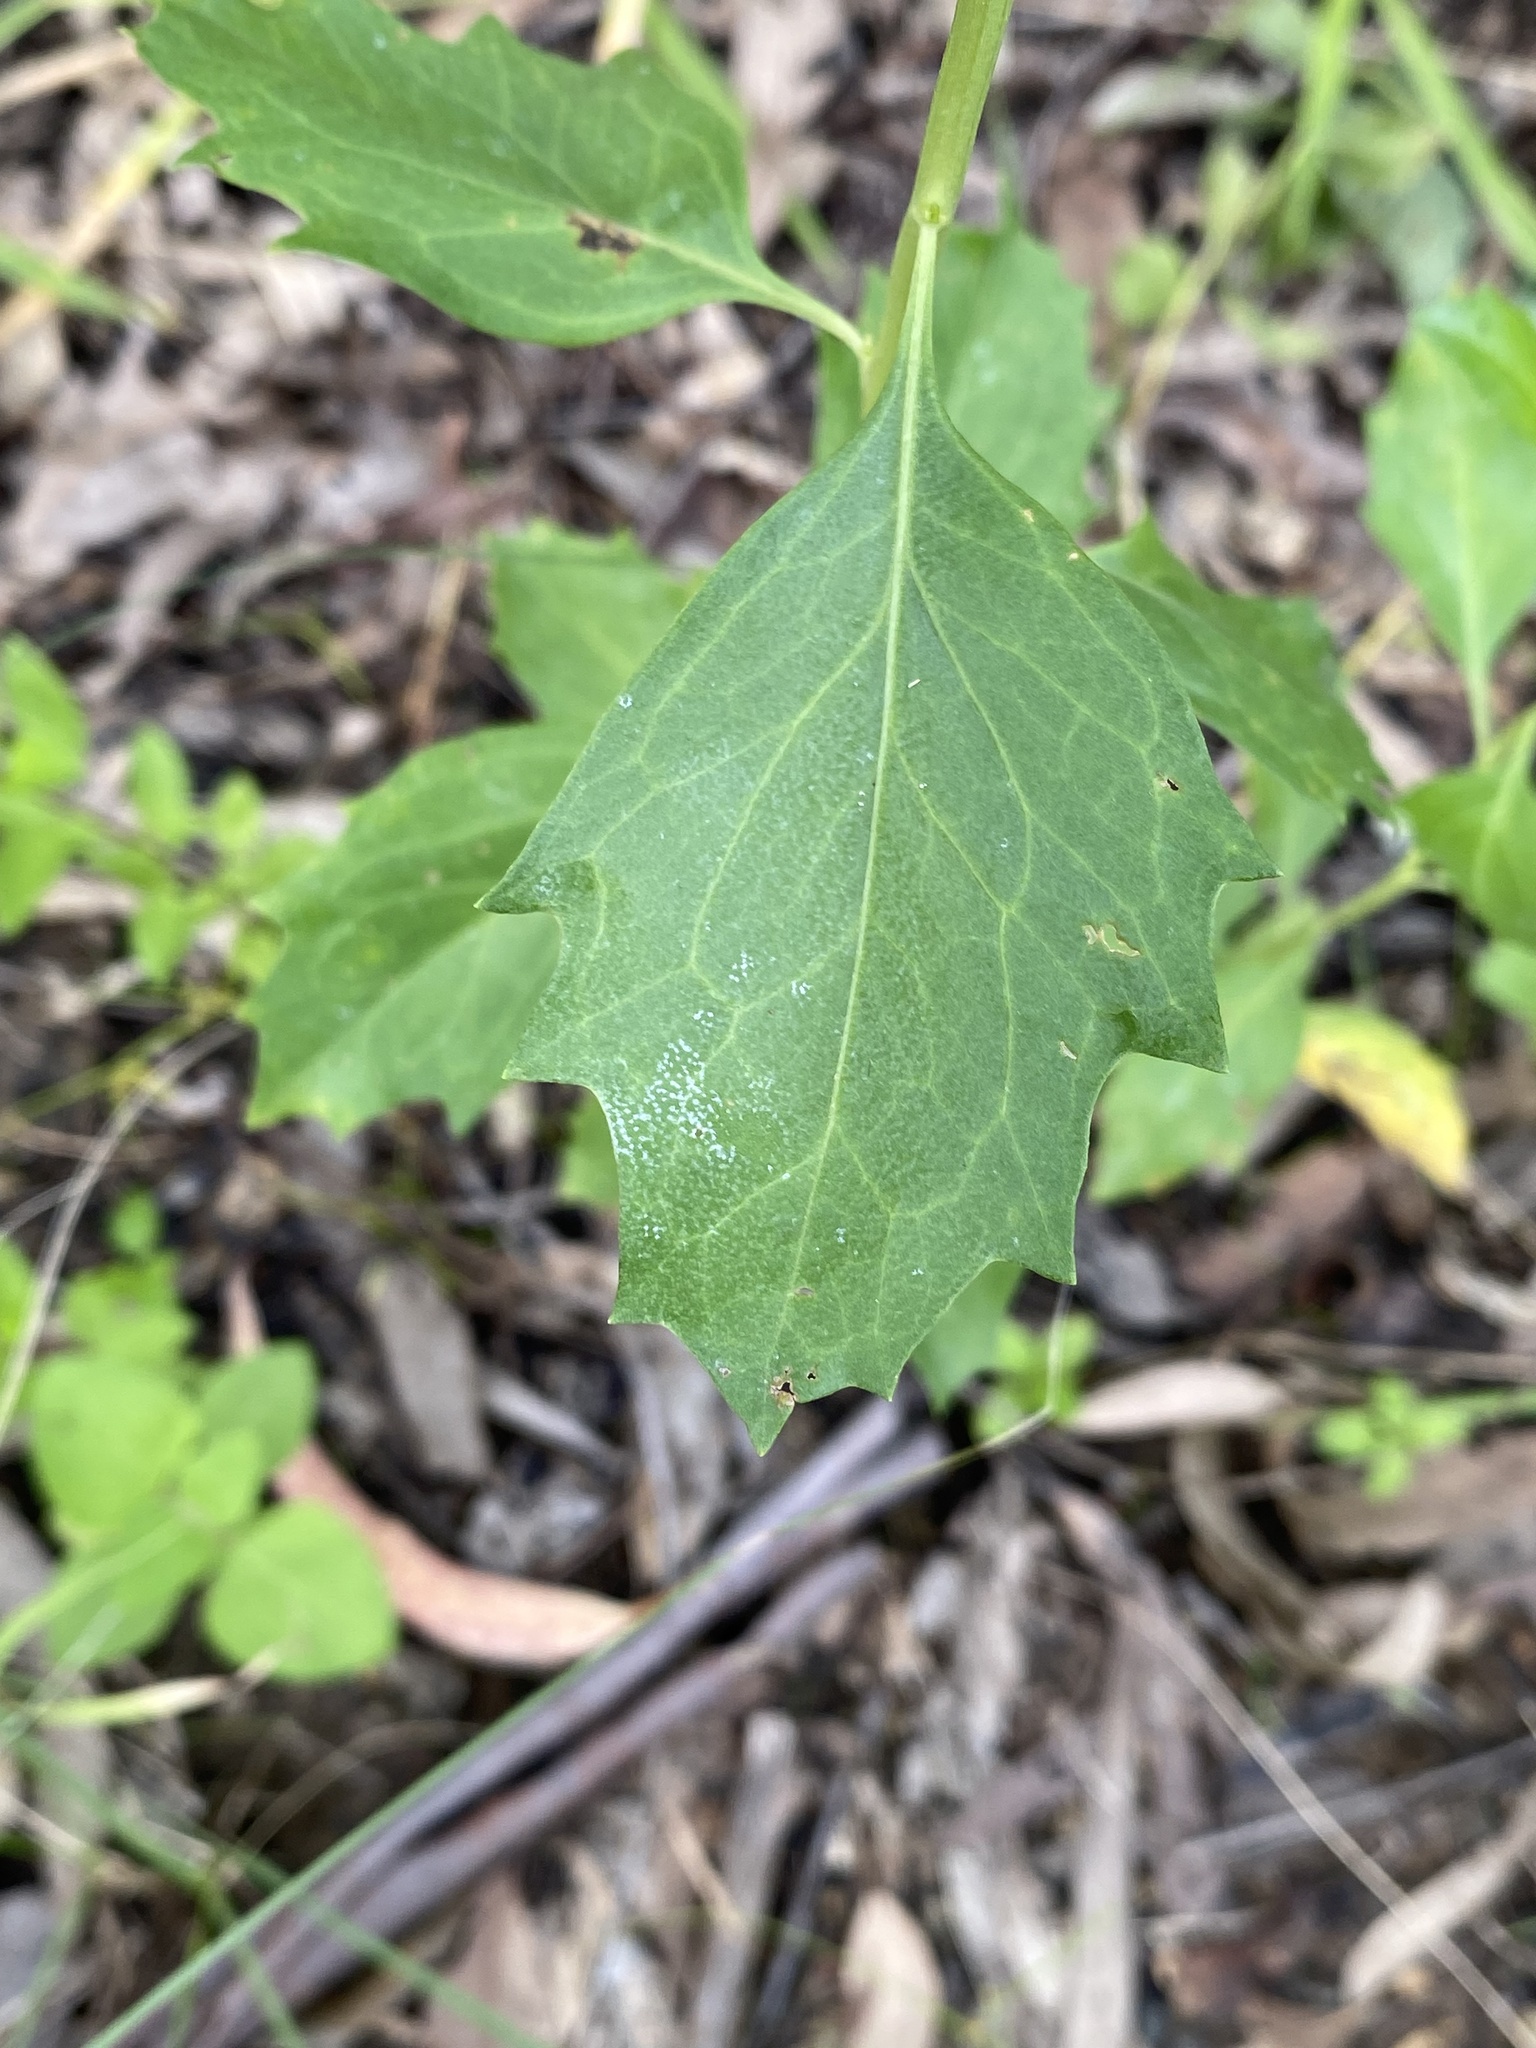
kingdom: Plantae
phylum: Tracheophyta
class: Magnoliopsida
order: Asterales
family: Asteraceae
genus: Baccharis
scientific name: Baccharis halimifolia
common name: Eastern baccharis
